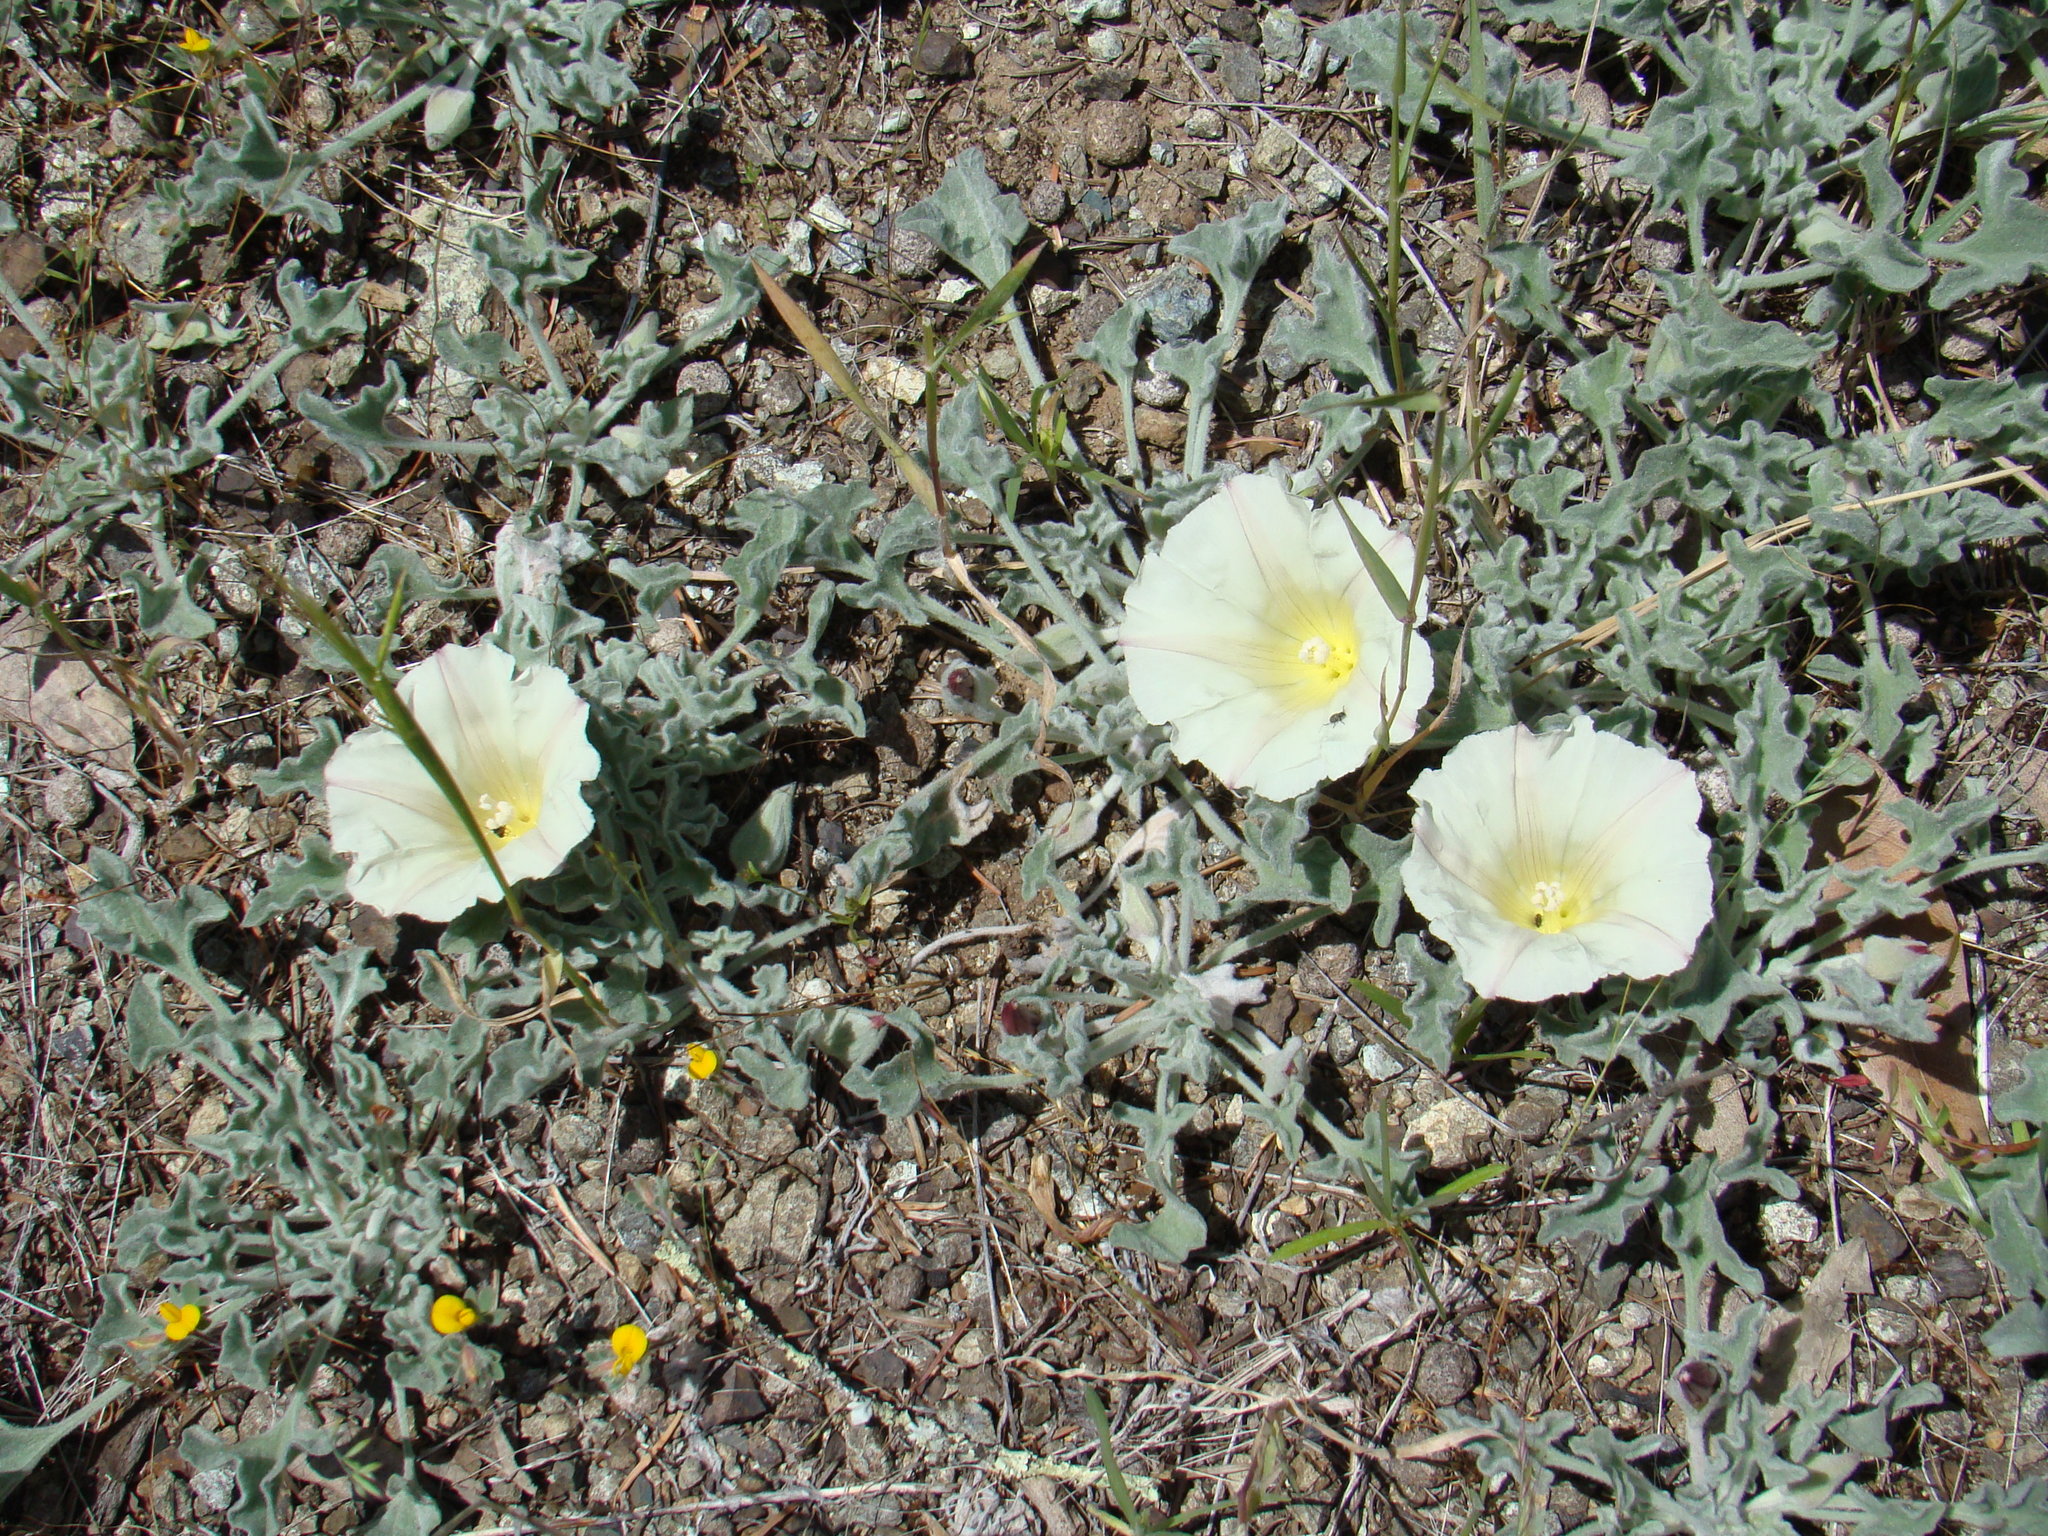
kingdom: Plantae
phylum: Tracheophyta
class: Magnoliopsida
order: Solanales
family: Convolvulaceae
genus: Calystegia
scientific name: Calystegia collina
